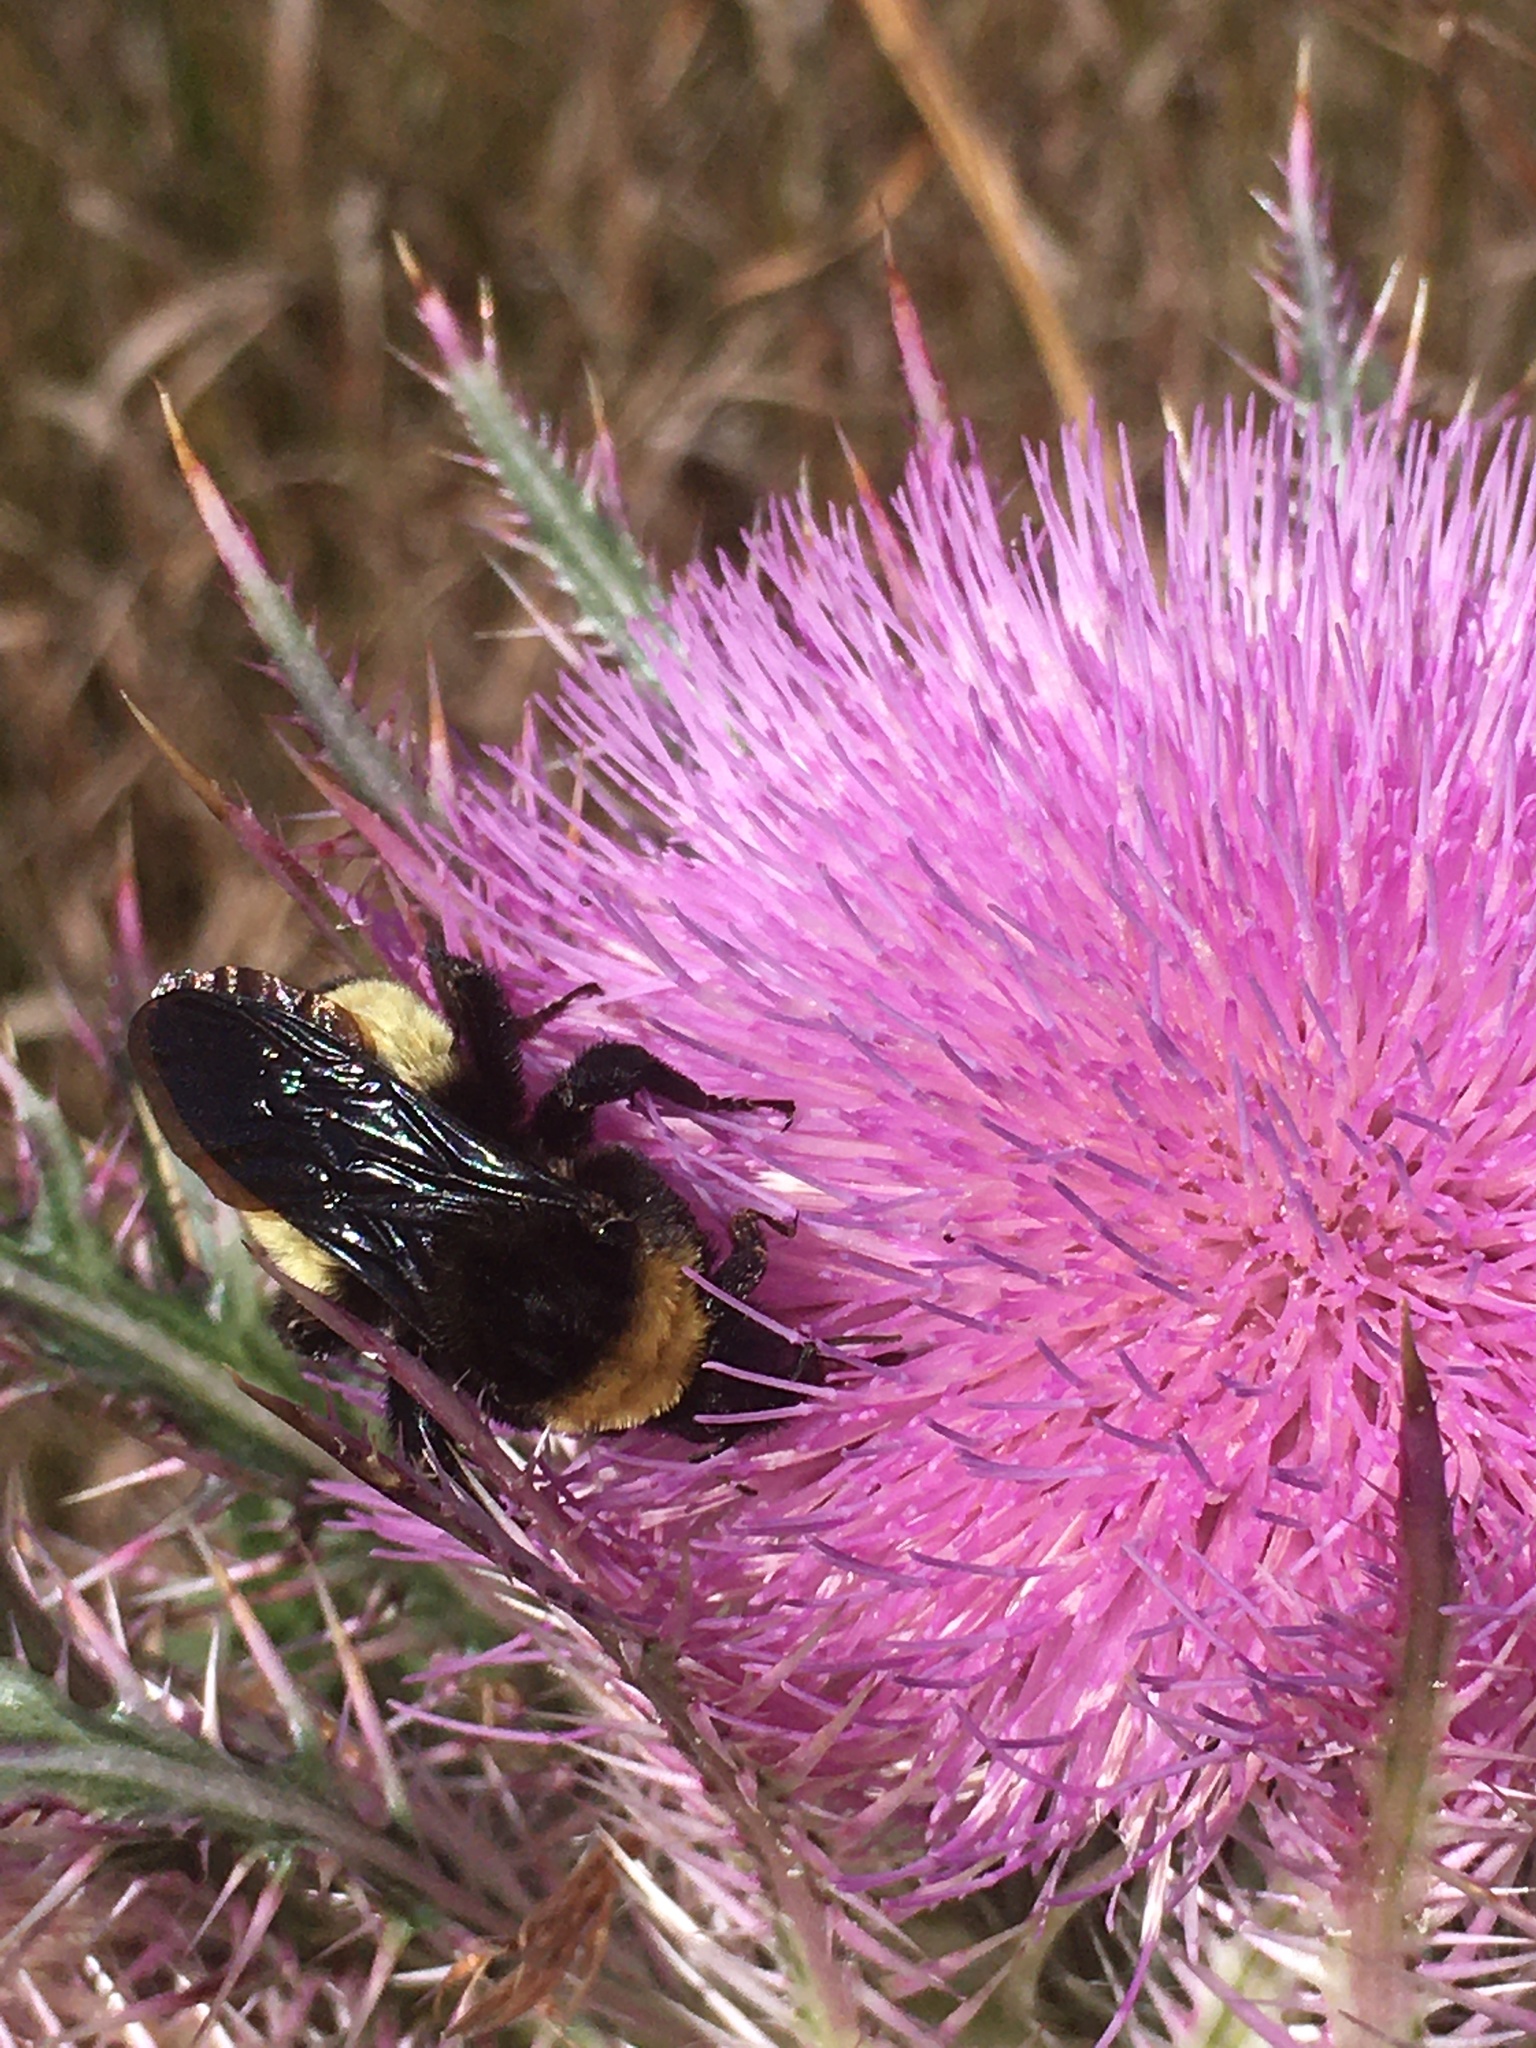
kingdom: Animalia
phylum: Arthropoda
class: Insecta
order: Hymenoptera
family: Apidae
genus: Bombus
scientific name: Bombus pensylvanicus
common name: Bumble bee
